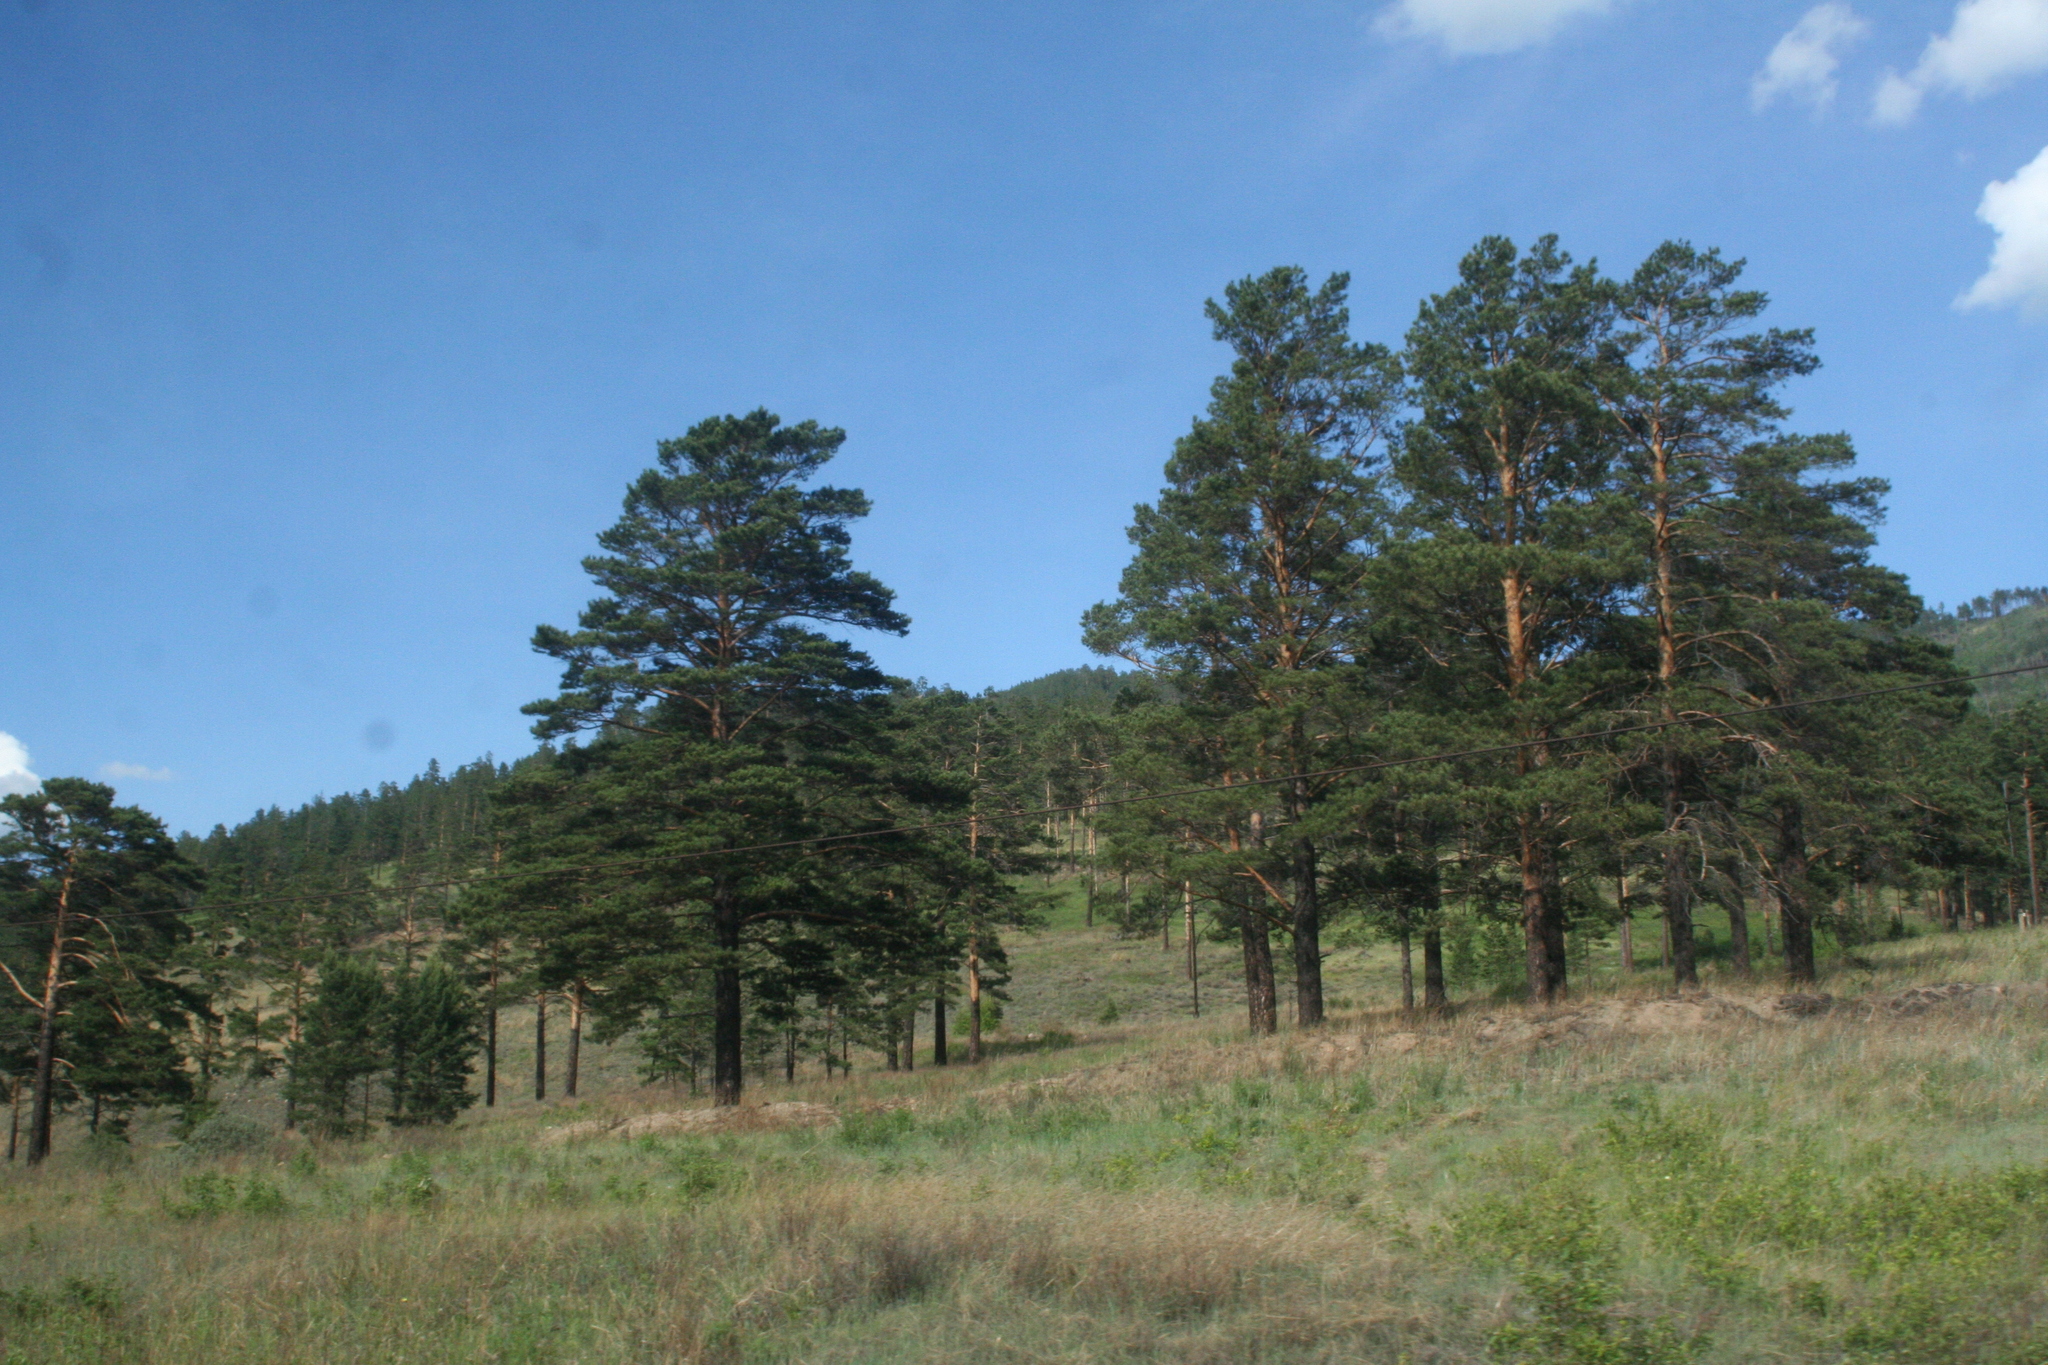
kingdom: Plantae
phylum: Tracheophyta
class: Pinopsida
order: Pinales
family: Pinaceae
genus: Pinus
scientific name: Pinus sylvestris
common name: Scots pine
